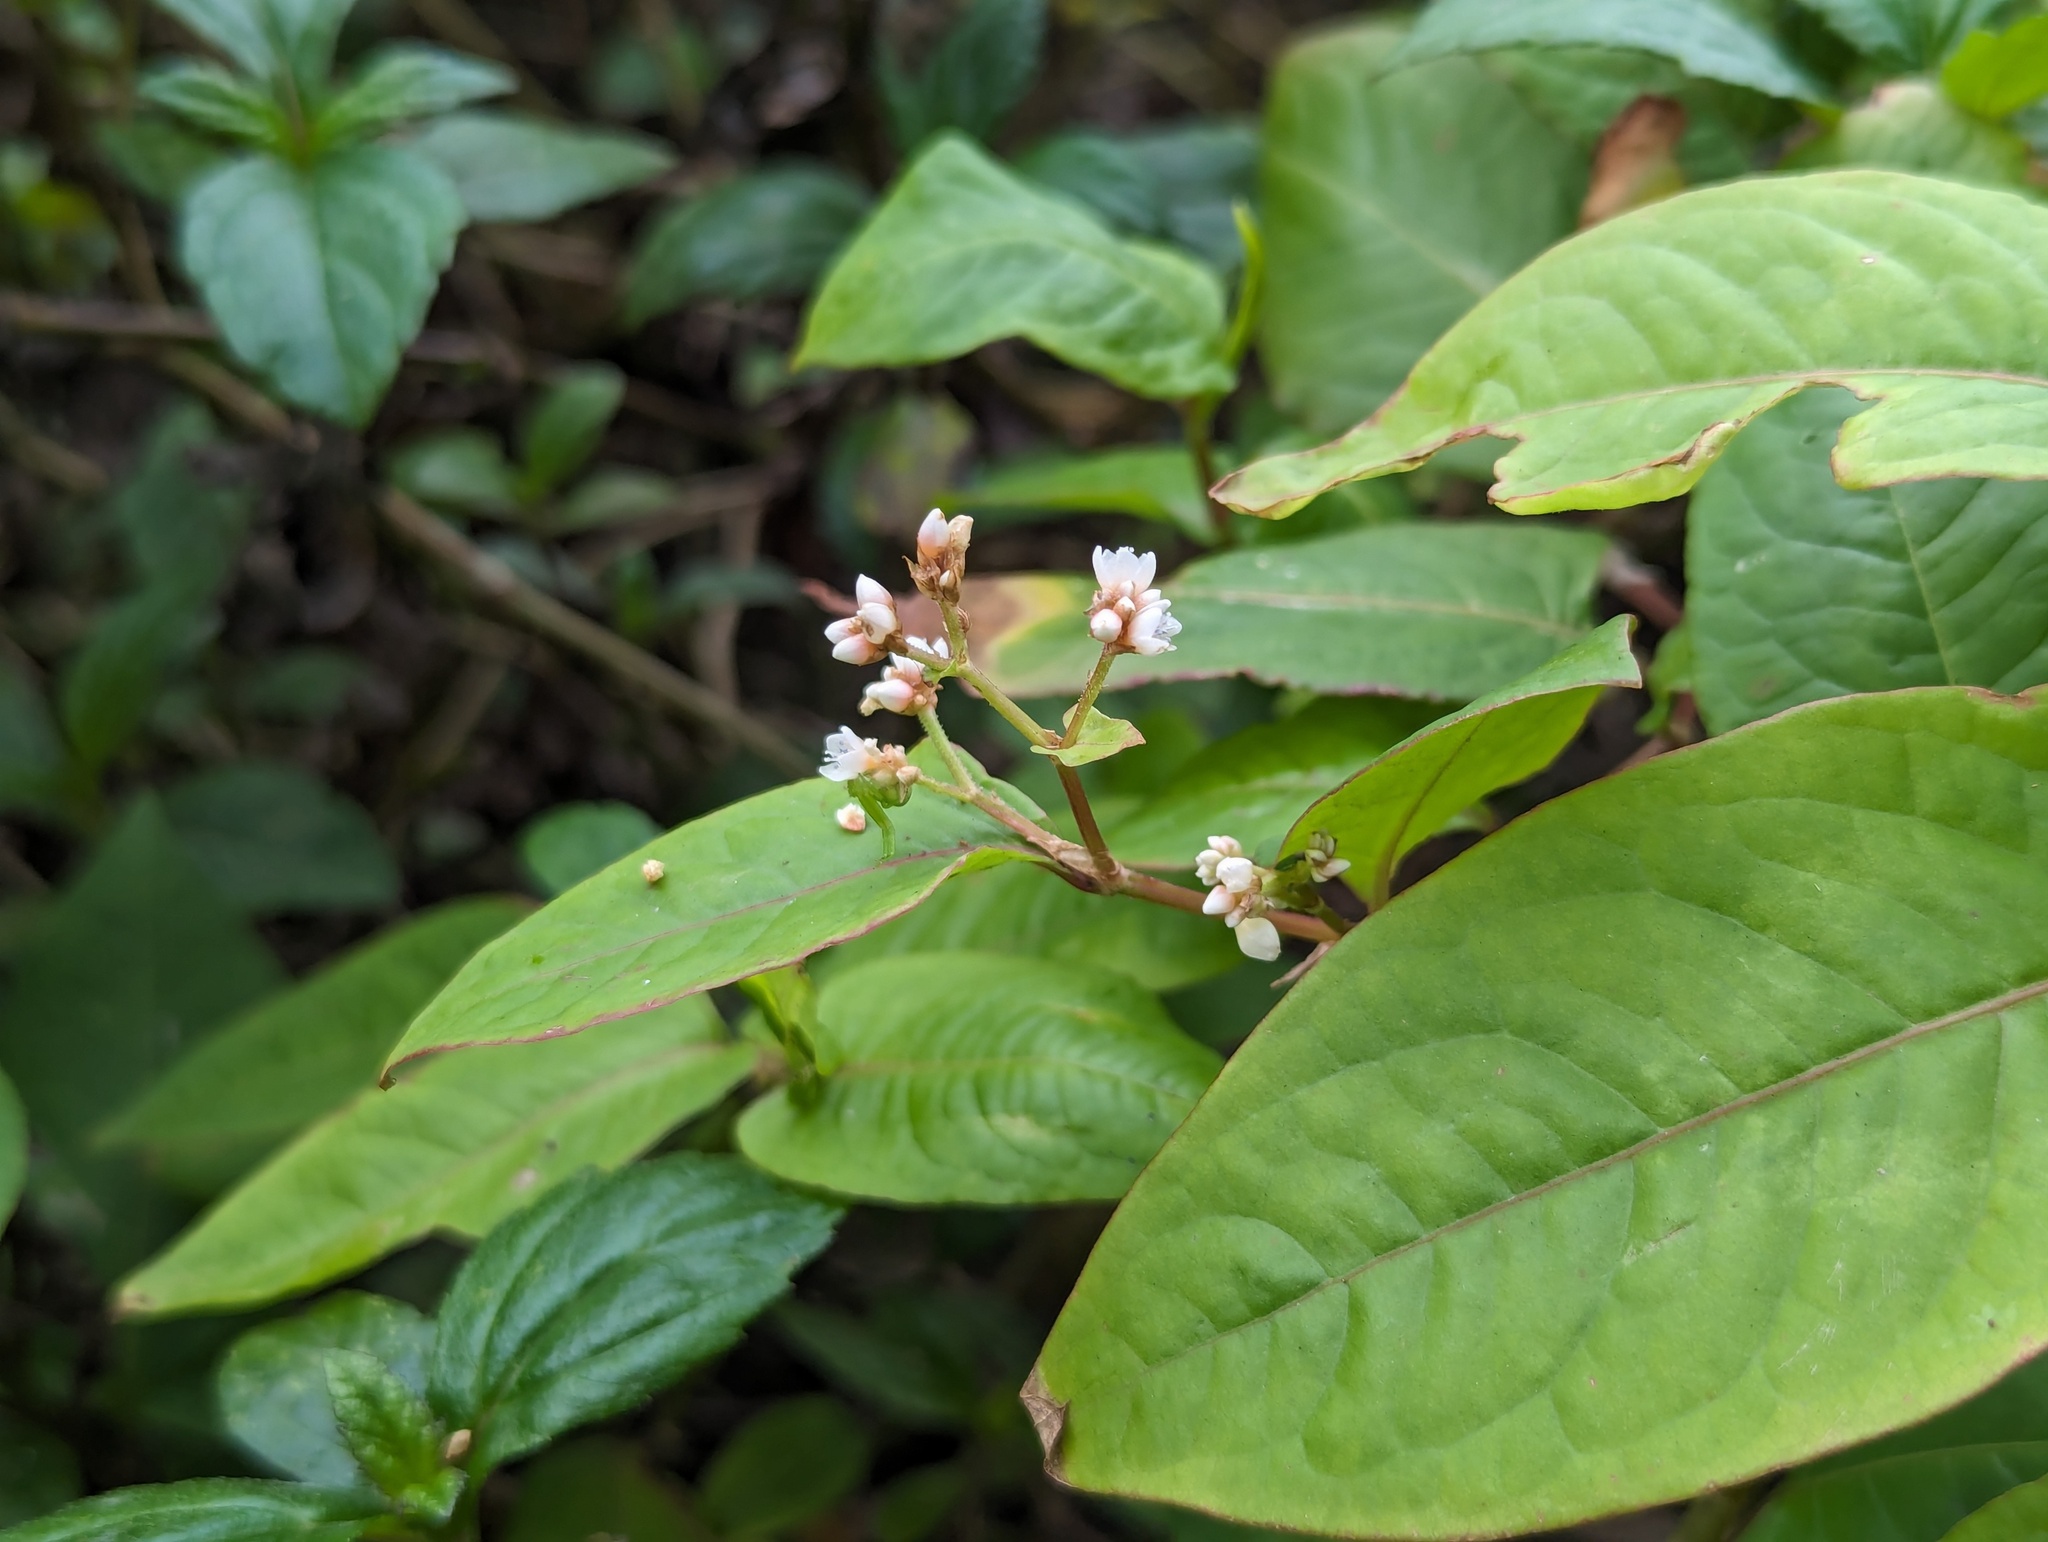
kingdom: Plantae
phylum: Tracheophyta
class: Magnoliopsida
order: Caryophyllales
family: Polygonaceae
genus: Persicaria
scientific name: Persicaria chinensis
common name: Chinese knotweed
